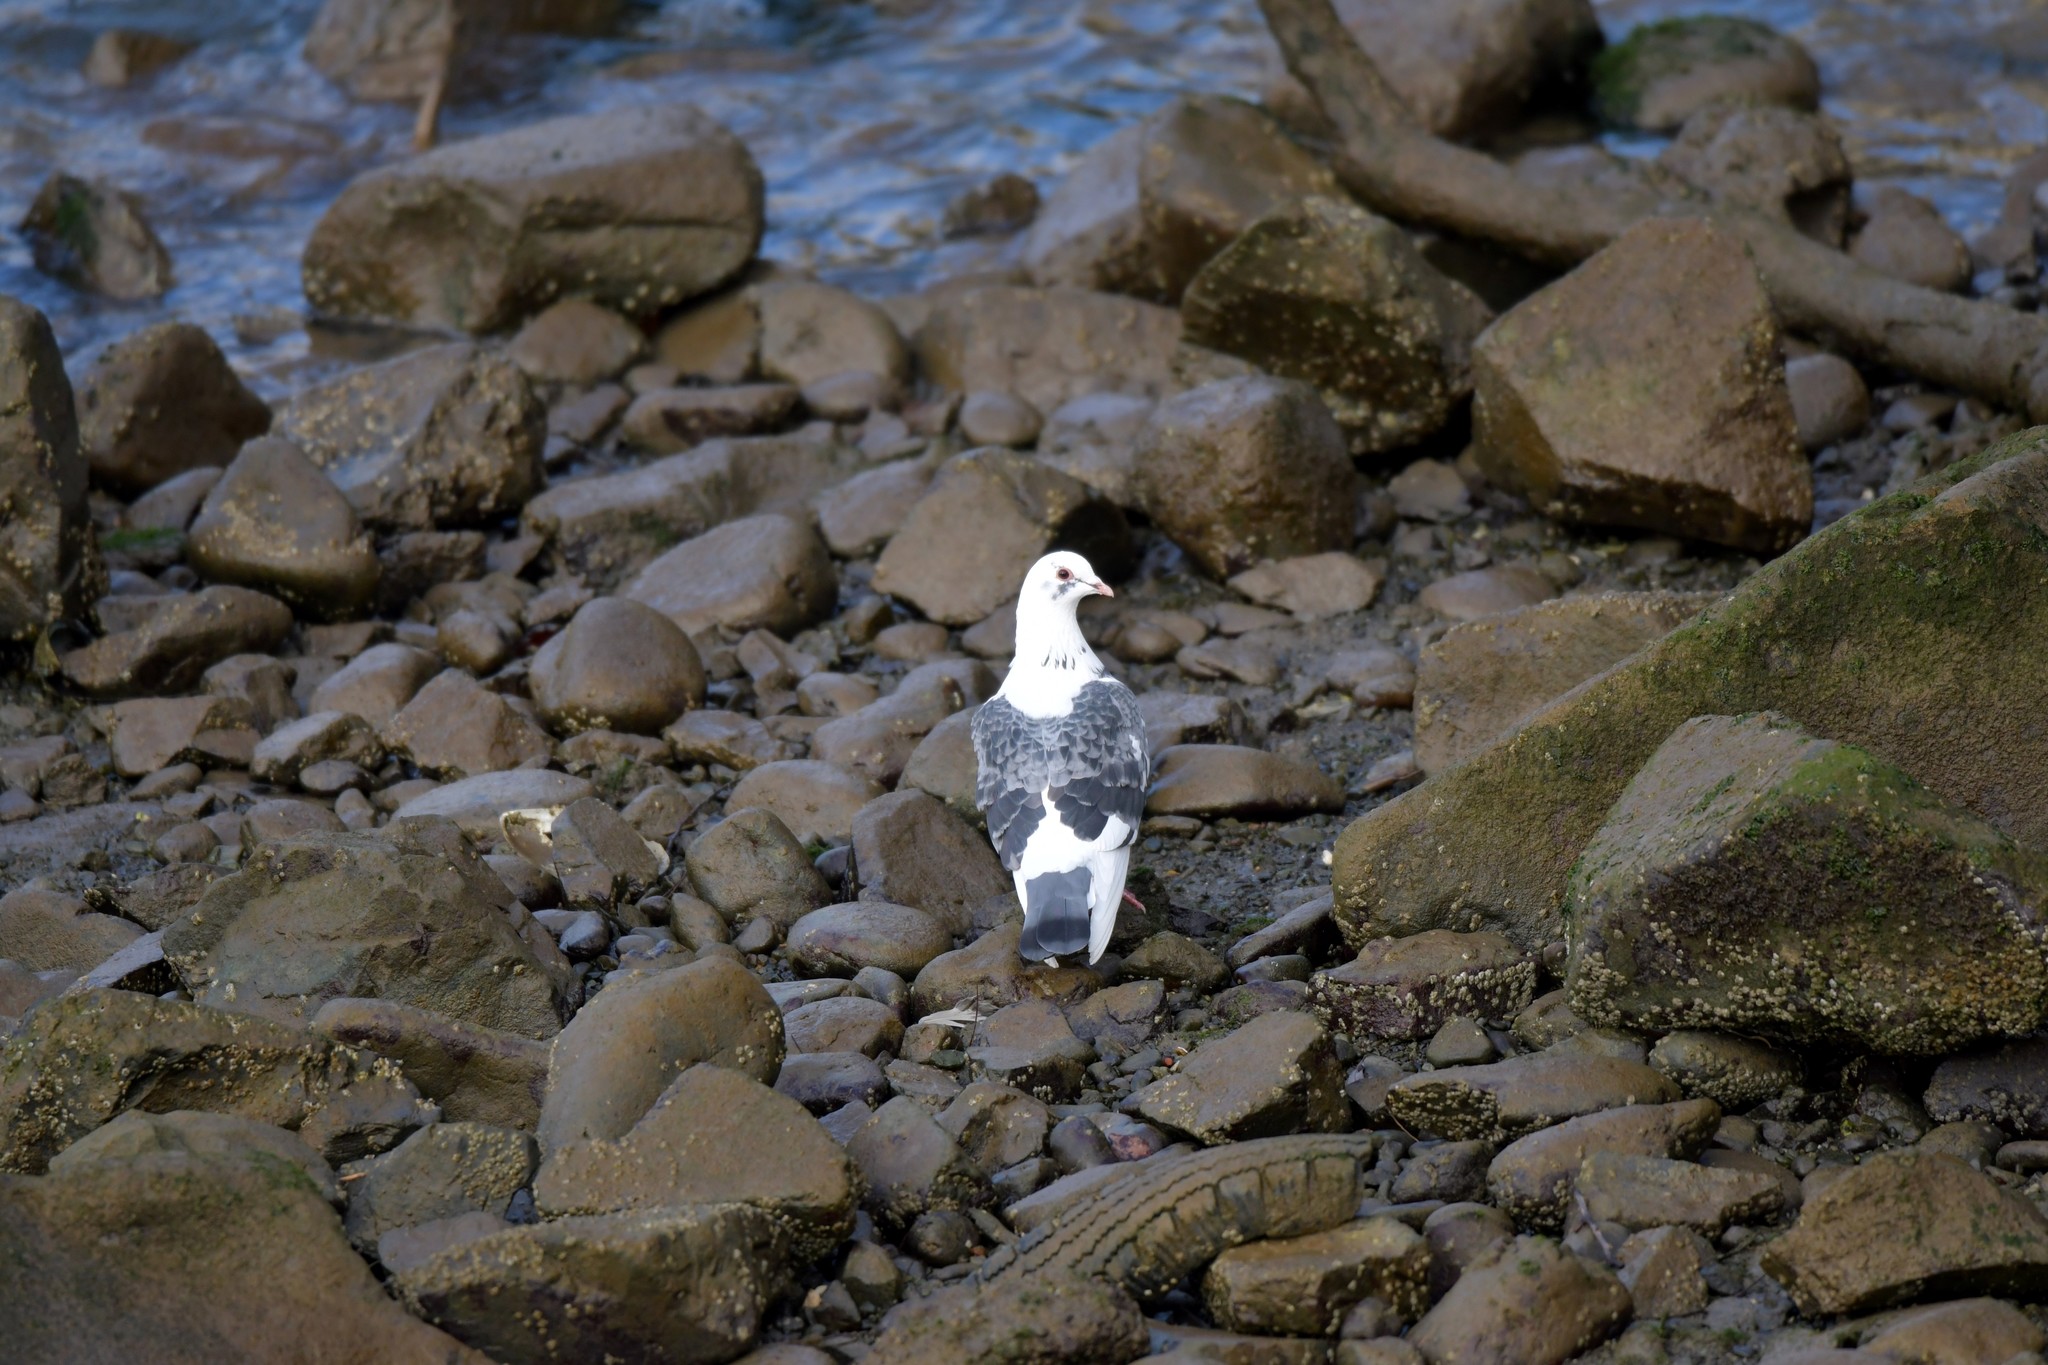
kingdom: Animalia
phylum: Chordata
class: Aves
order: Columbiformes
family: Columbidae
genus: Columba
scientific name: Columba livia
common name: Rock pigeon
